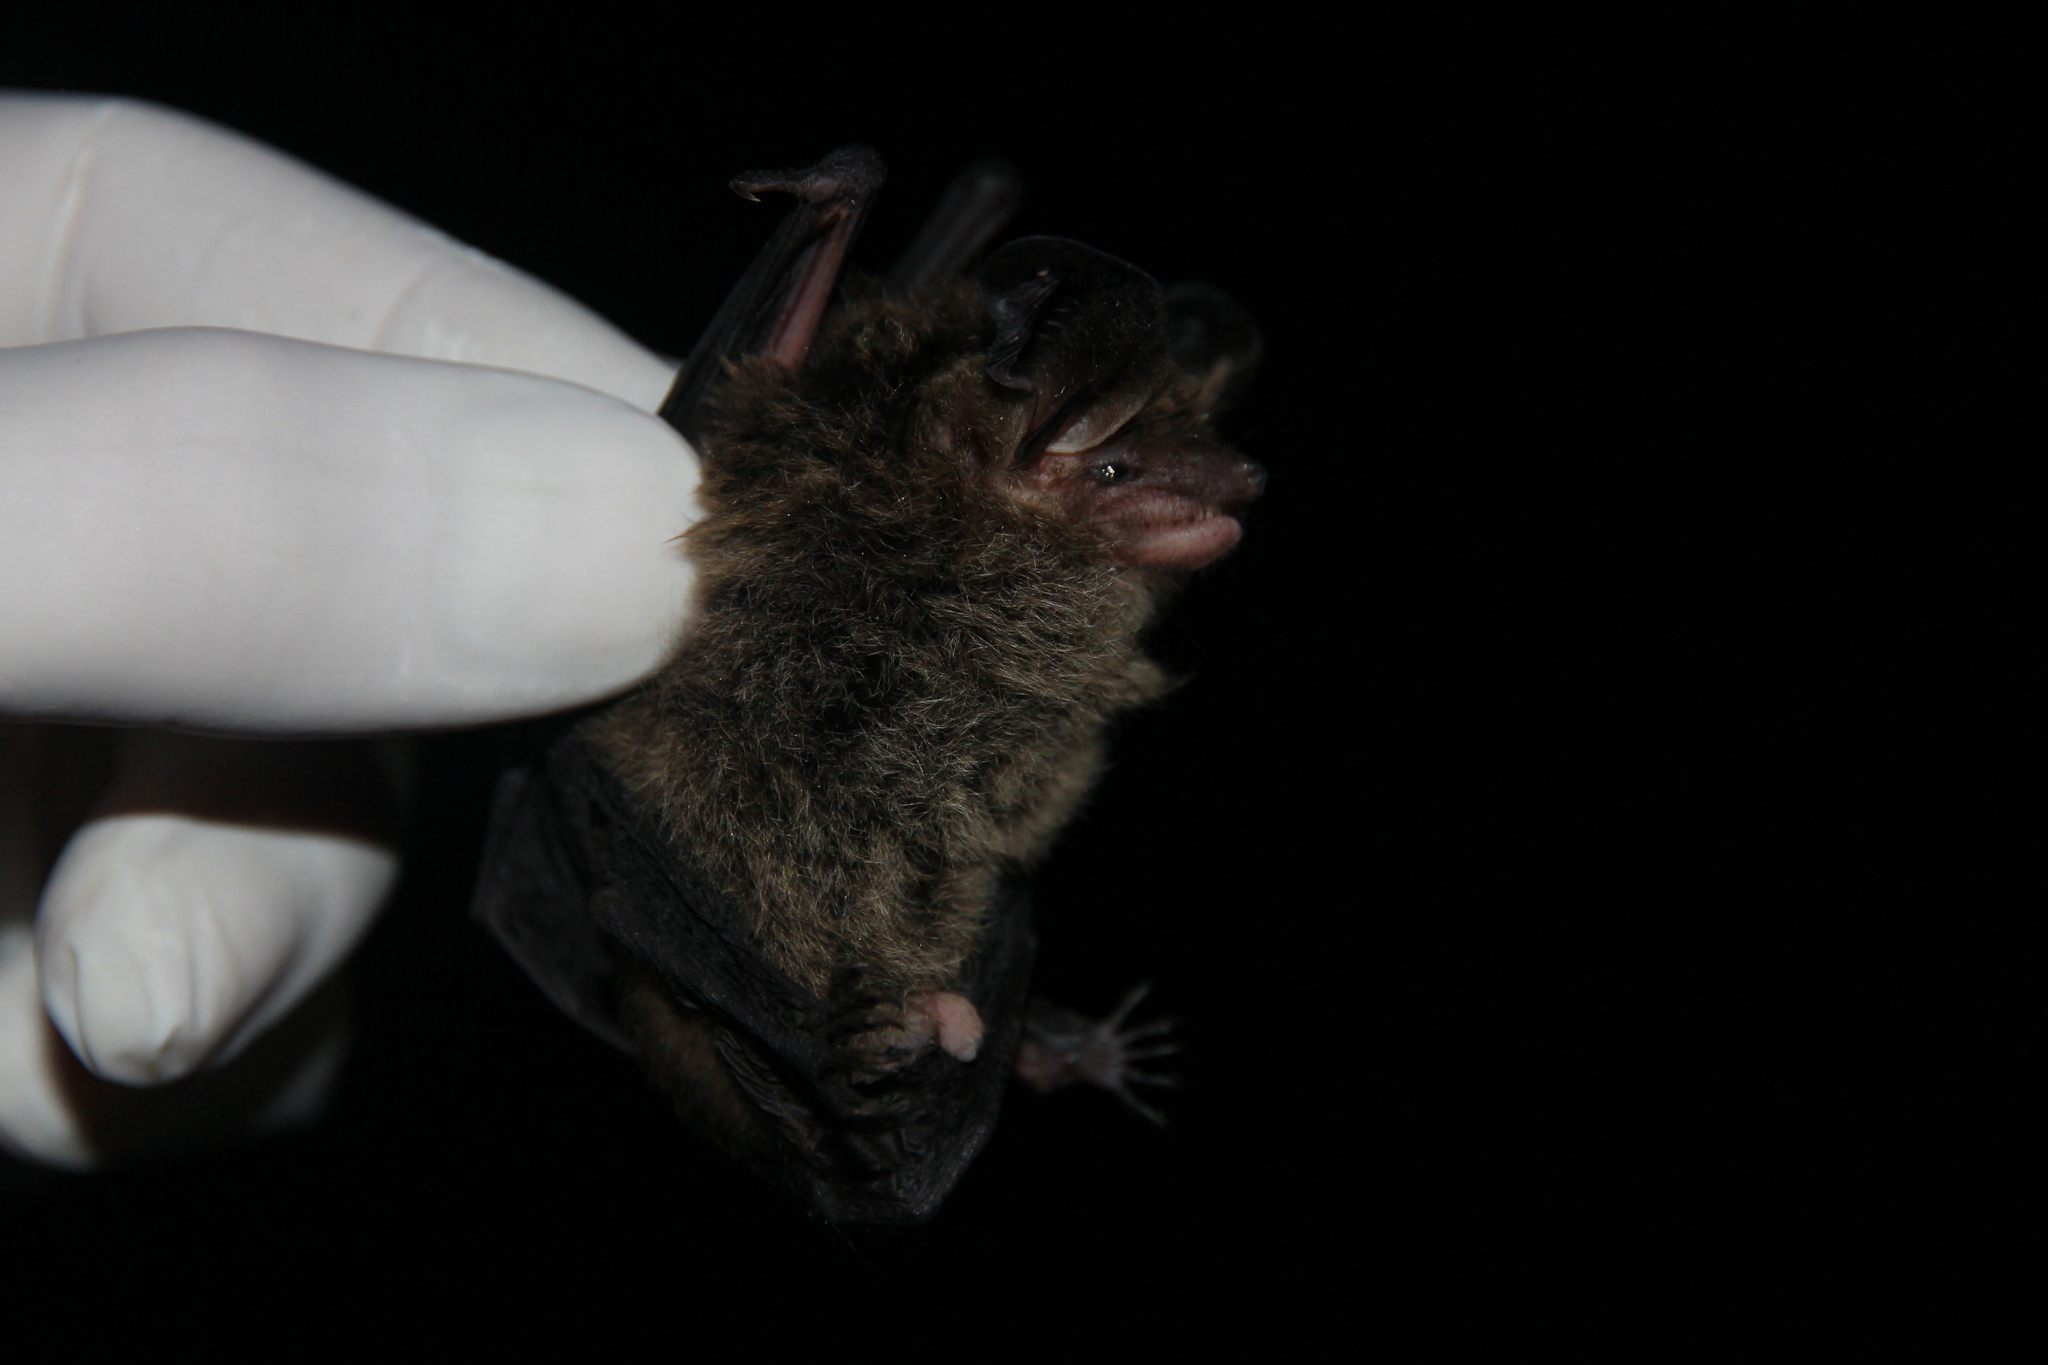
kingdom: Animalia
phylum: Chordata
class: Mammalia
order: Chiroptera
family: Vespertilionidae
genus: Histiotus
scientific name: Histiotus magellanicus
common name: Southern big-eared brown bat
